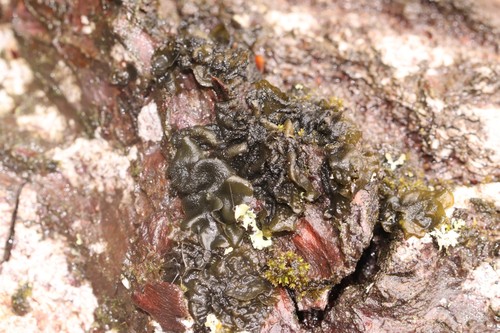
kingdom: Fungi
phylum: Ascomycota
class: Lecanoromycetes
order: Peltigerales
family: Collemataceae
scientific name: Collemataceae
